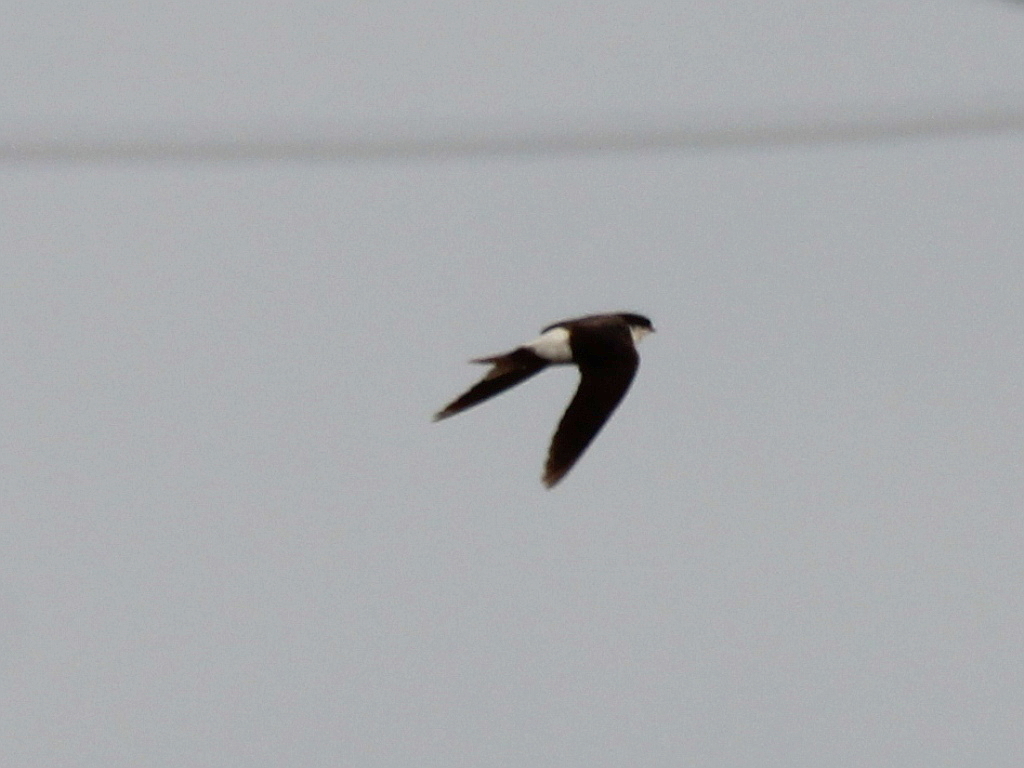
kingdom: Animalia
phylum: Chordata
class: Aves
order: Passeriformes
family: Hirundinidae
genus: Delichon
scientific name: Delichon urbicum
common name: Common house martin
